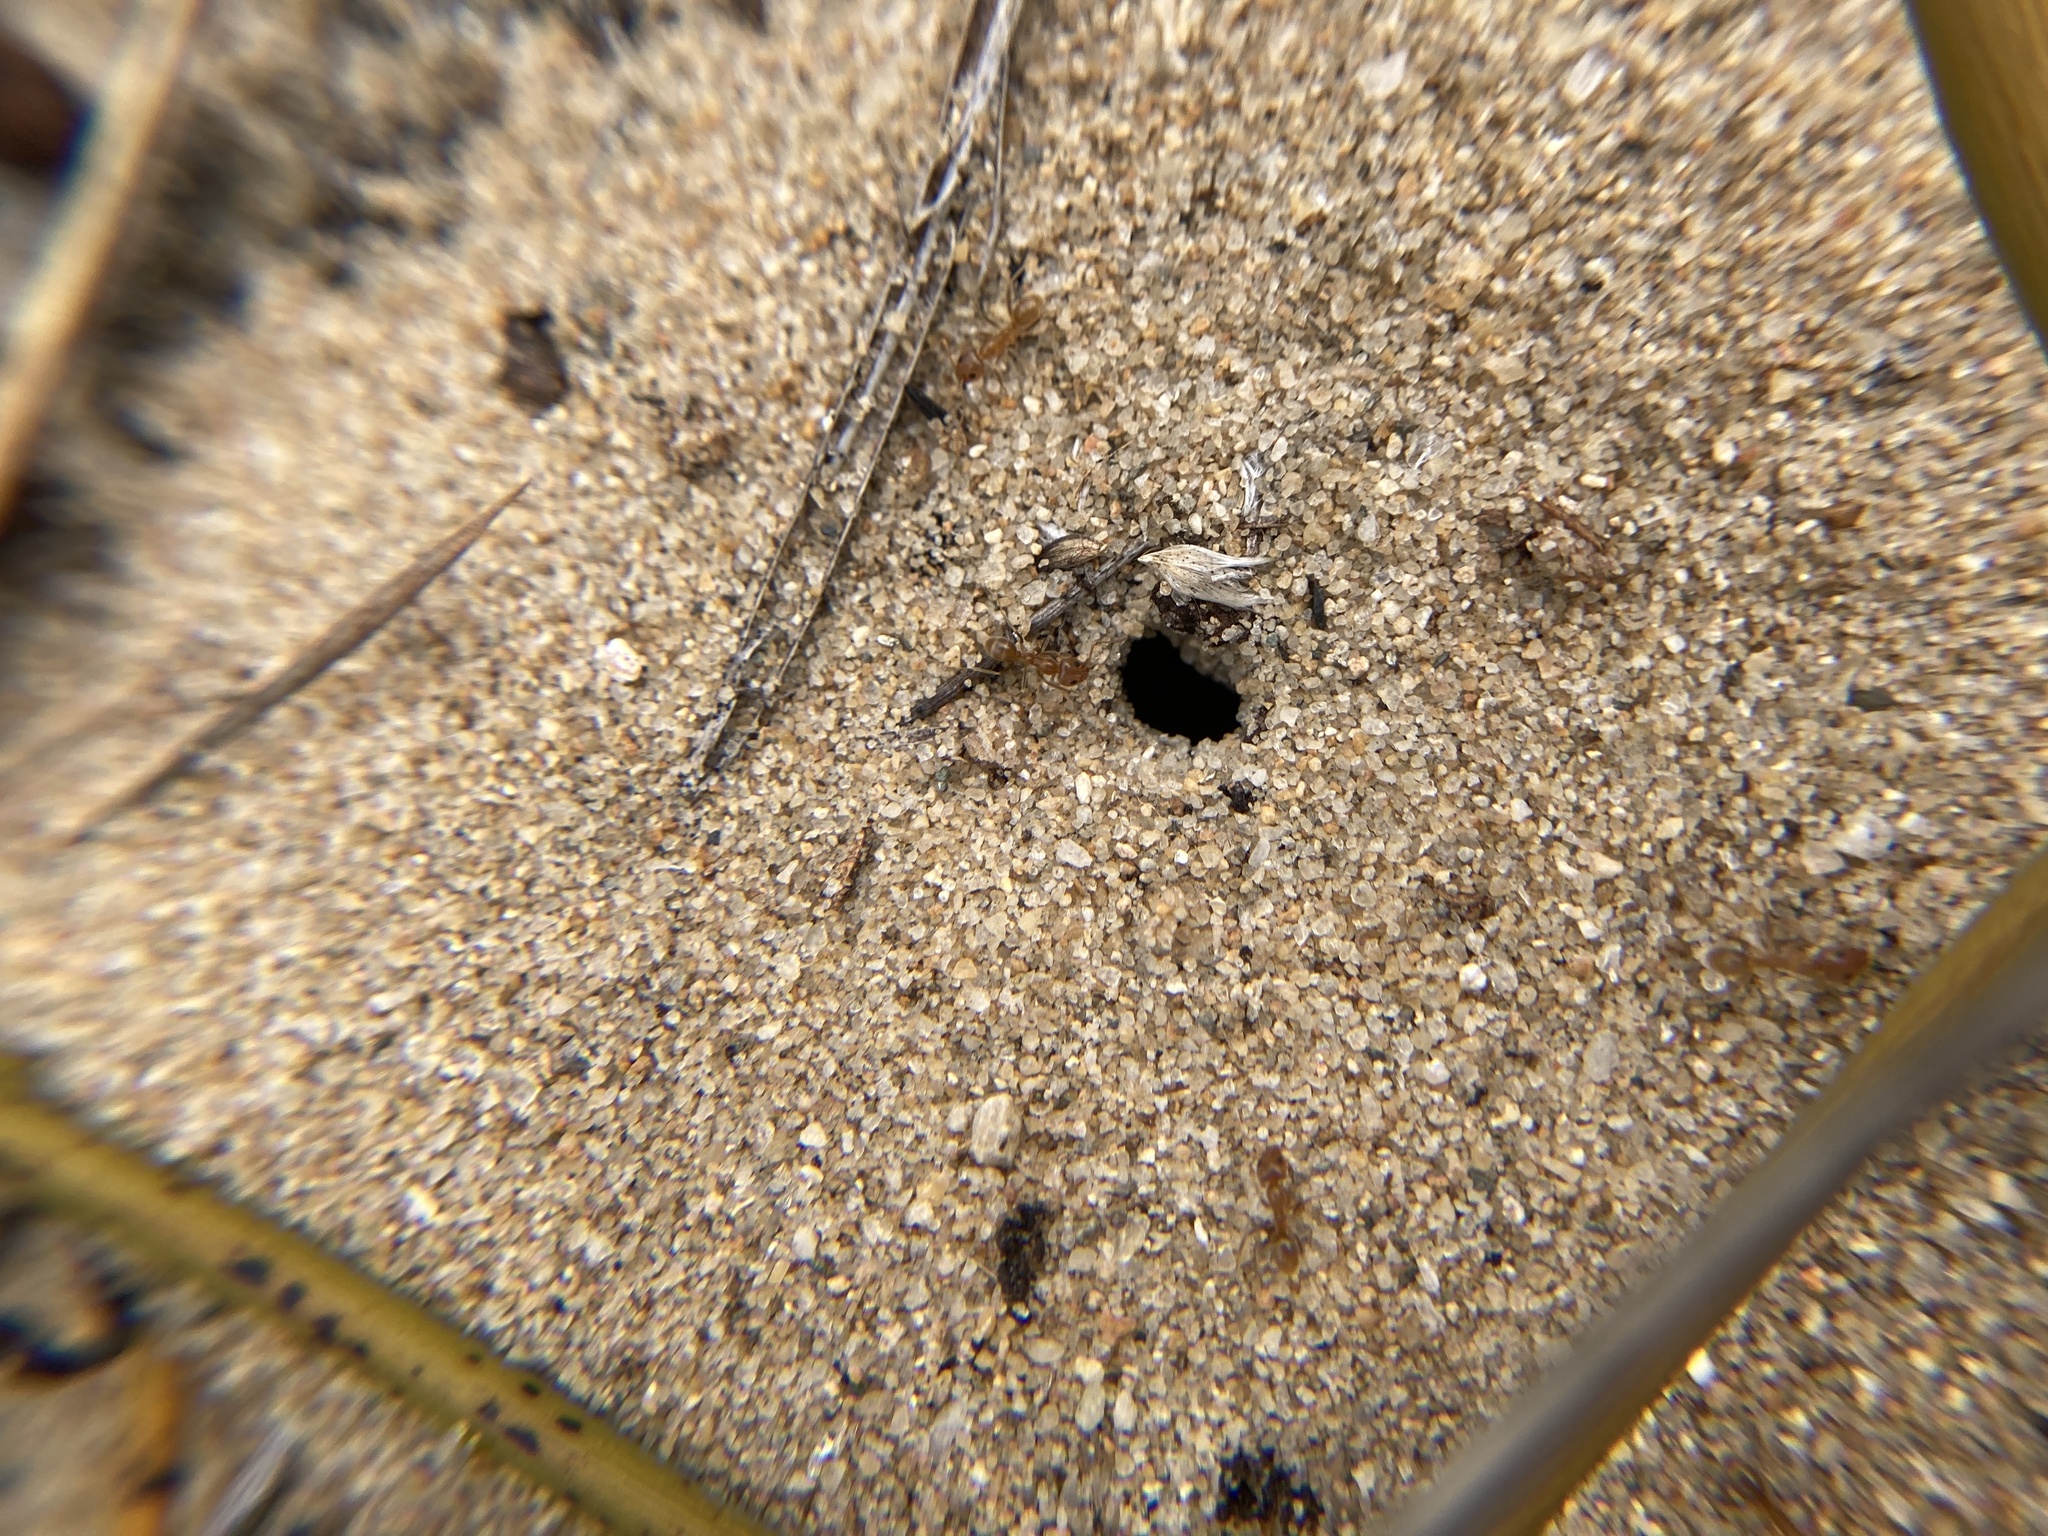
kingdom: Animalia
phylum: Arthropoda
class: Insecta
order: Hymenoptera
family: Formicidae
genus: Iridomyrmex
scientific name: Iridomyrmex pallidus
